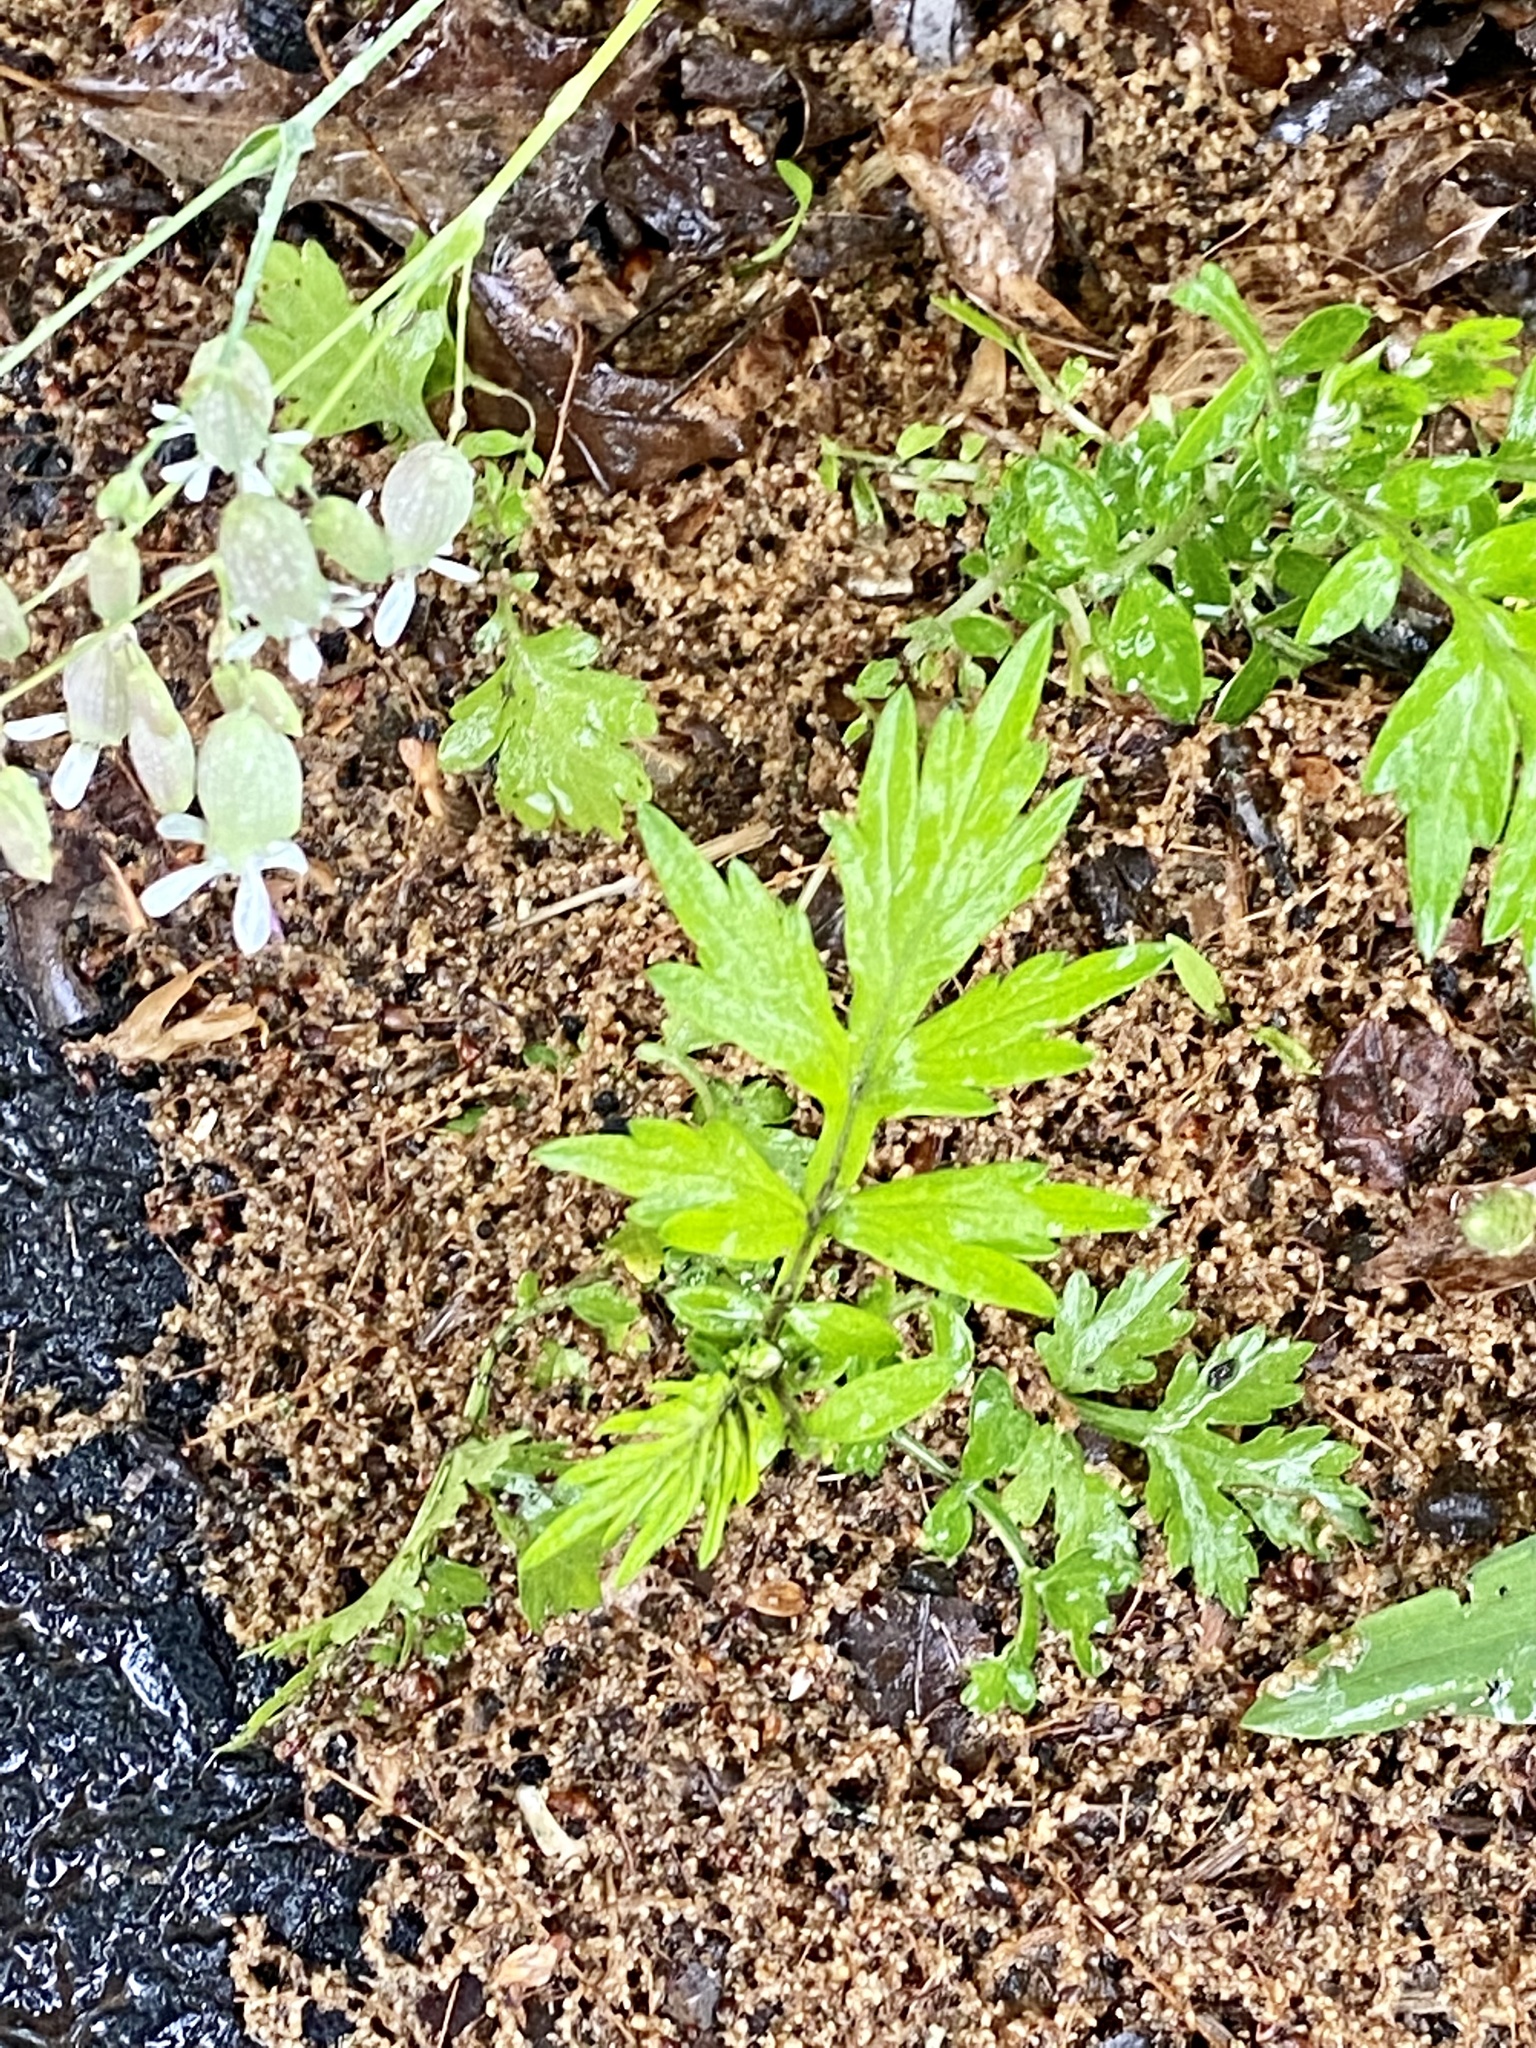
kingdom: Plantae
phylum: Tracheophyta
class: Magnoliopsida
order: Asterales
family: Asteraceae
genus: Artemisia
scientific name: Artemisia vulgaris
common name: Mugwort
